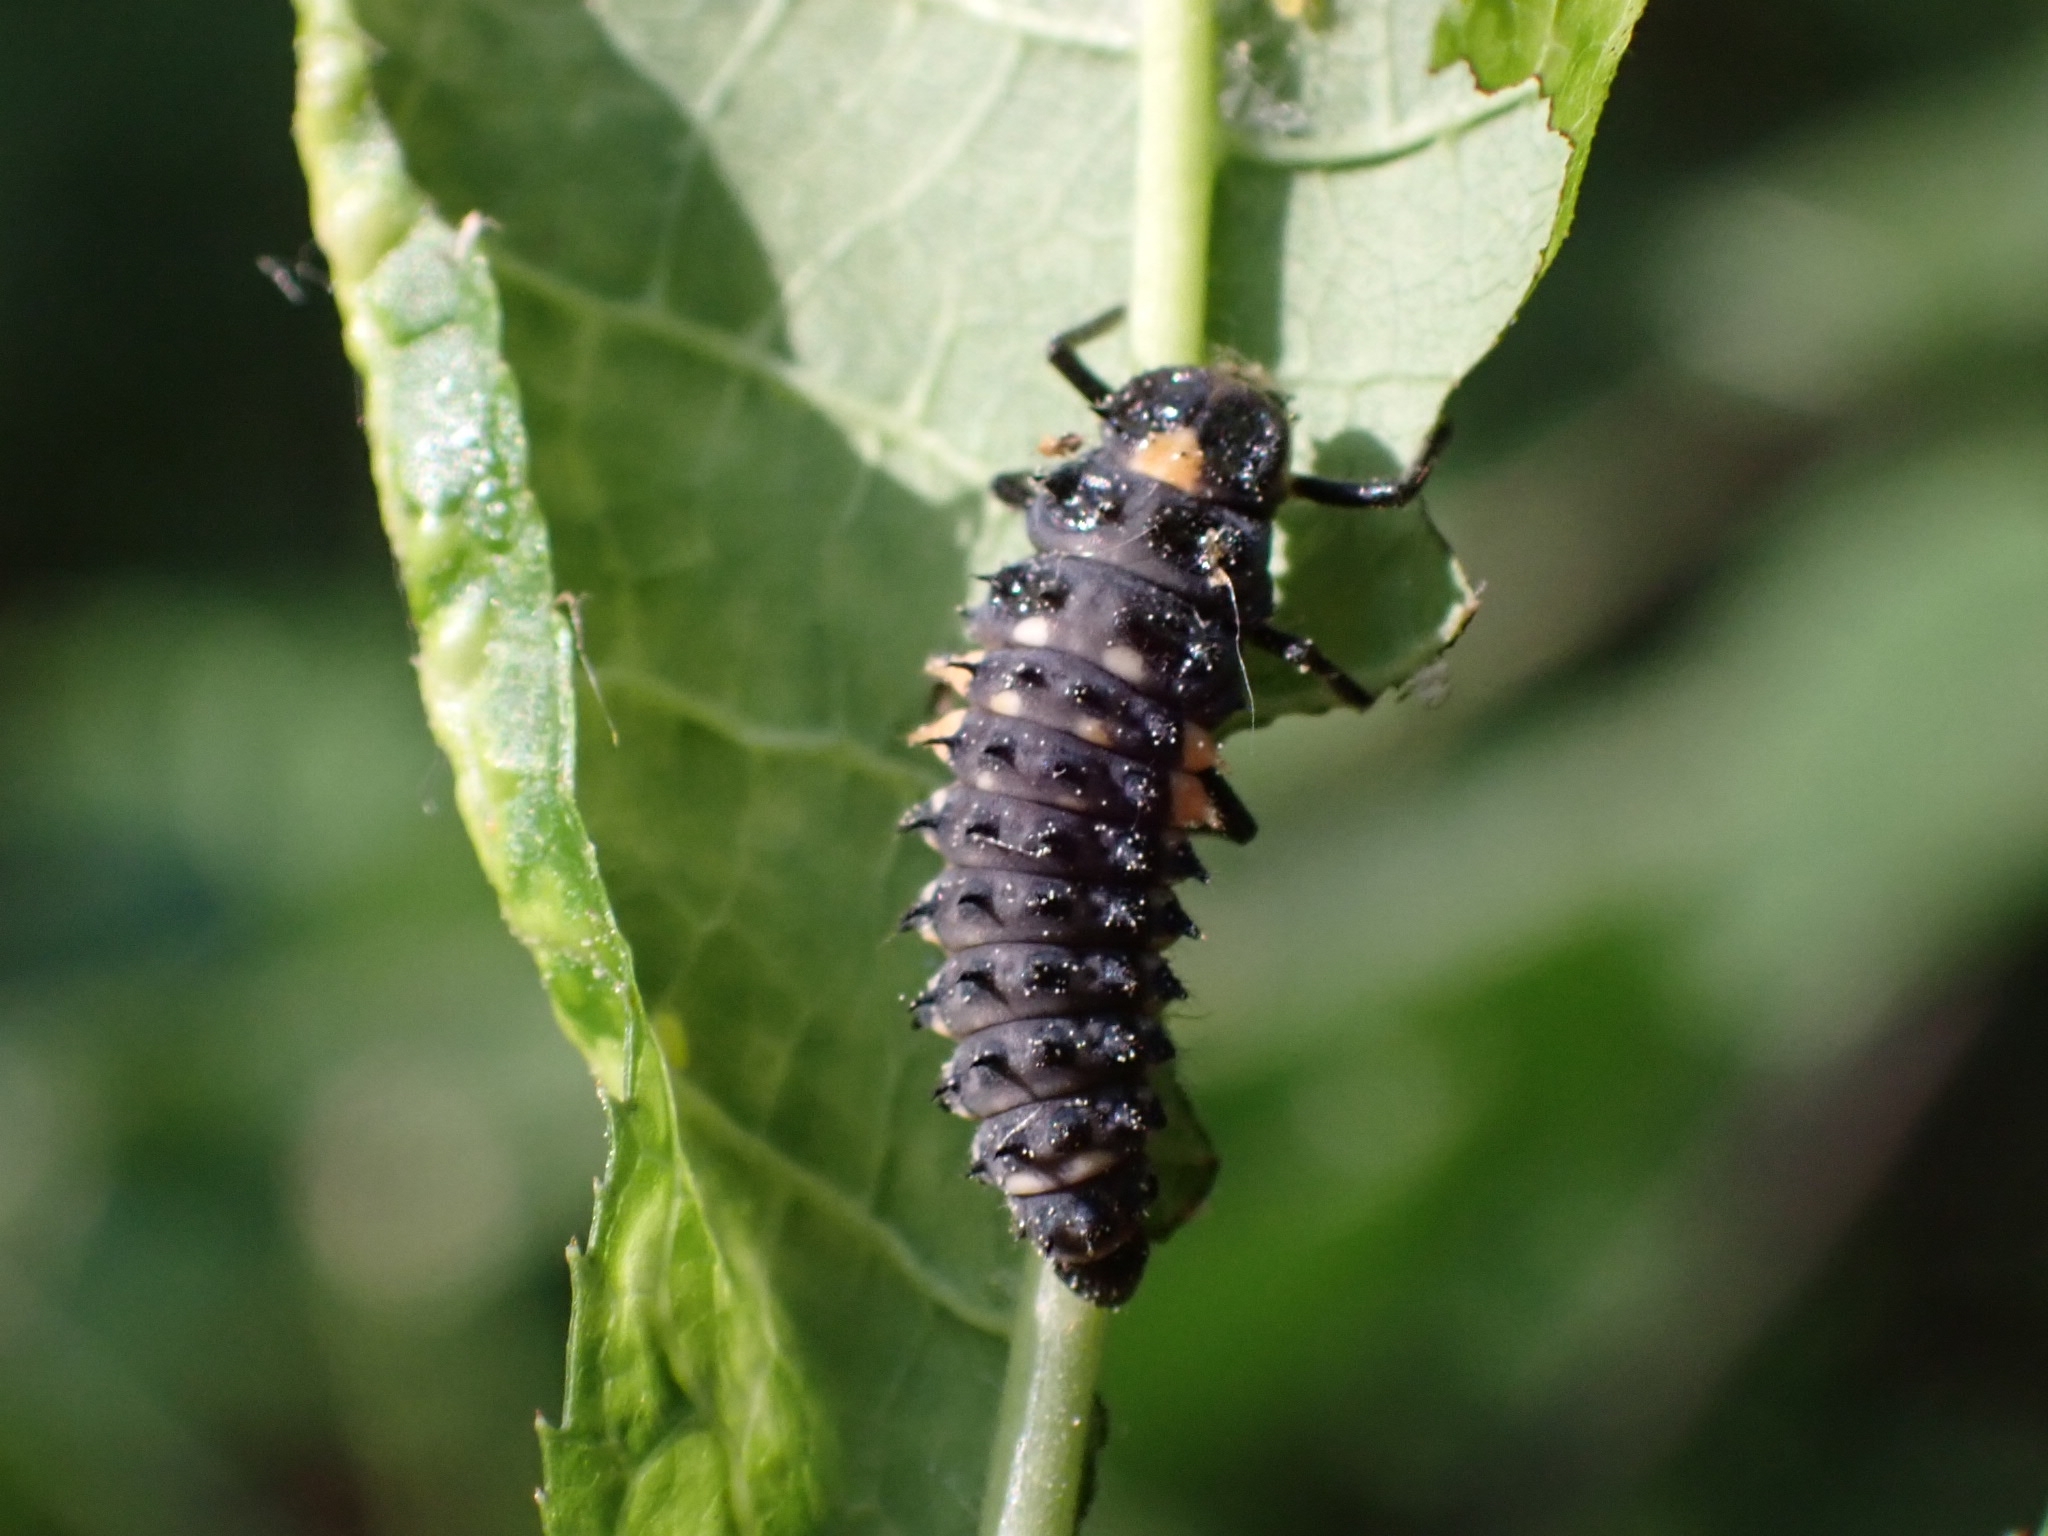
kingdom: Animalia
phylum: Arthropoda
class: Insecta
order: Coleoptera
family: Coccinellidae
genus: Anatis
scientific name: Anatis ocellata
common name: Eyed ladybird
